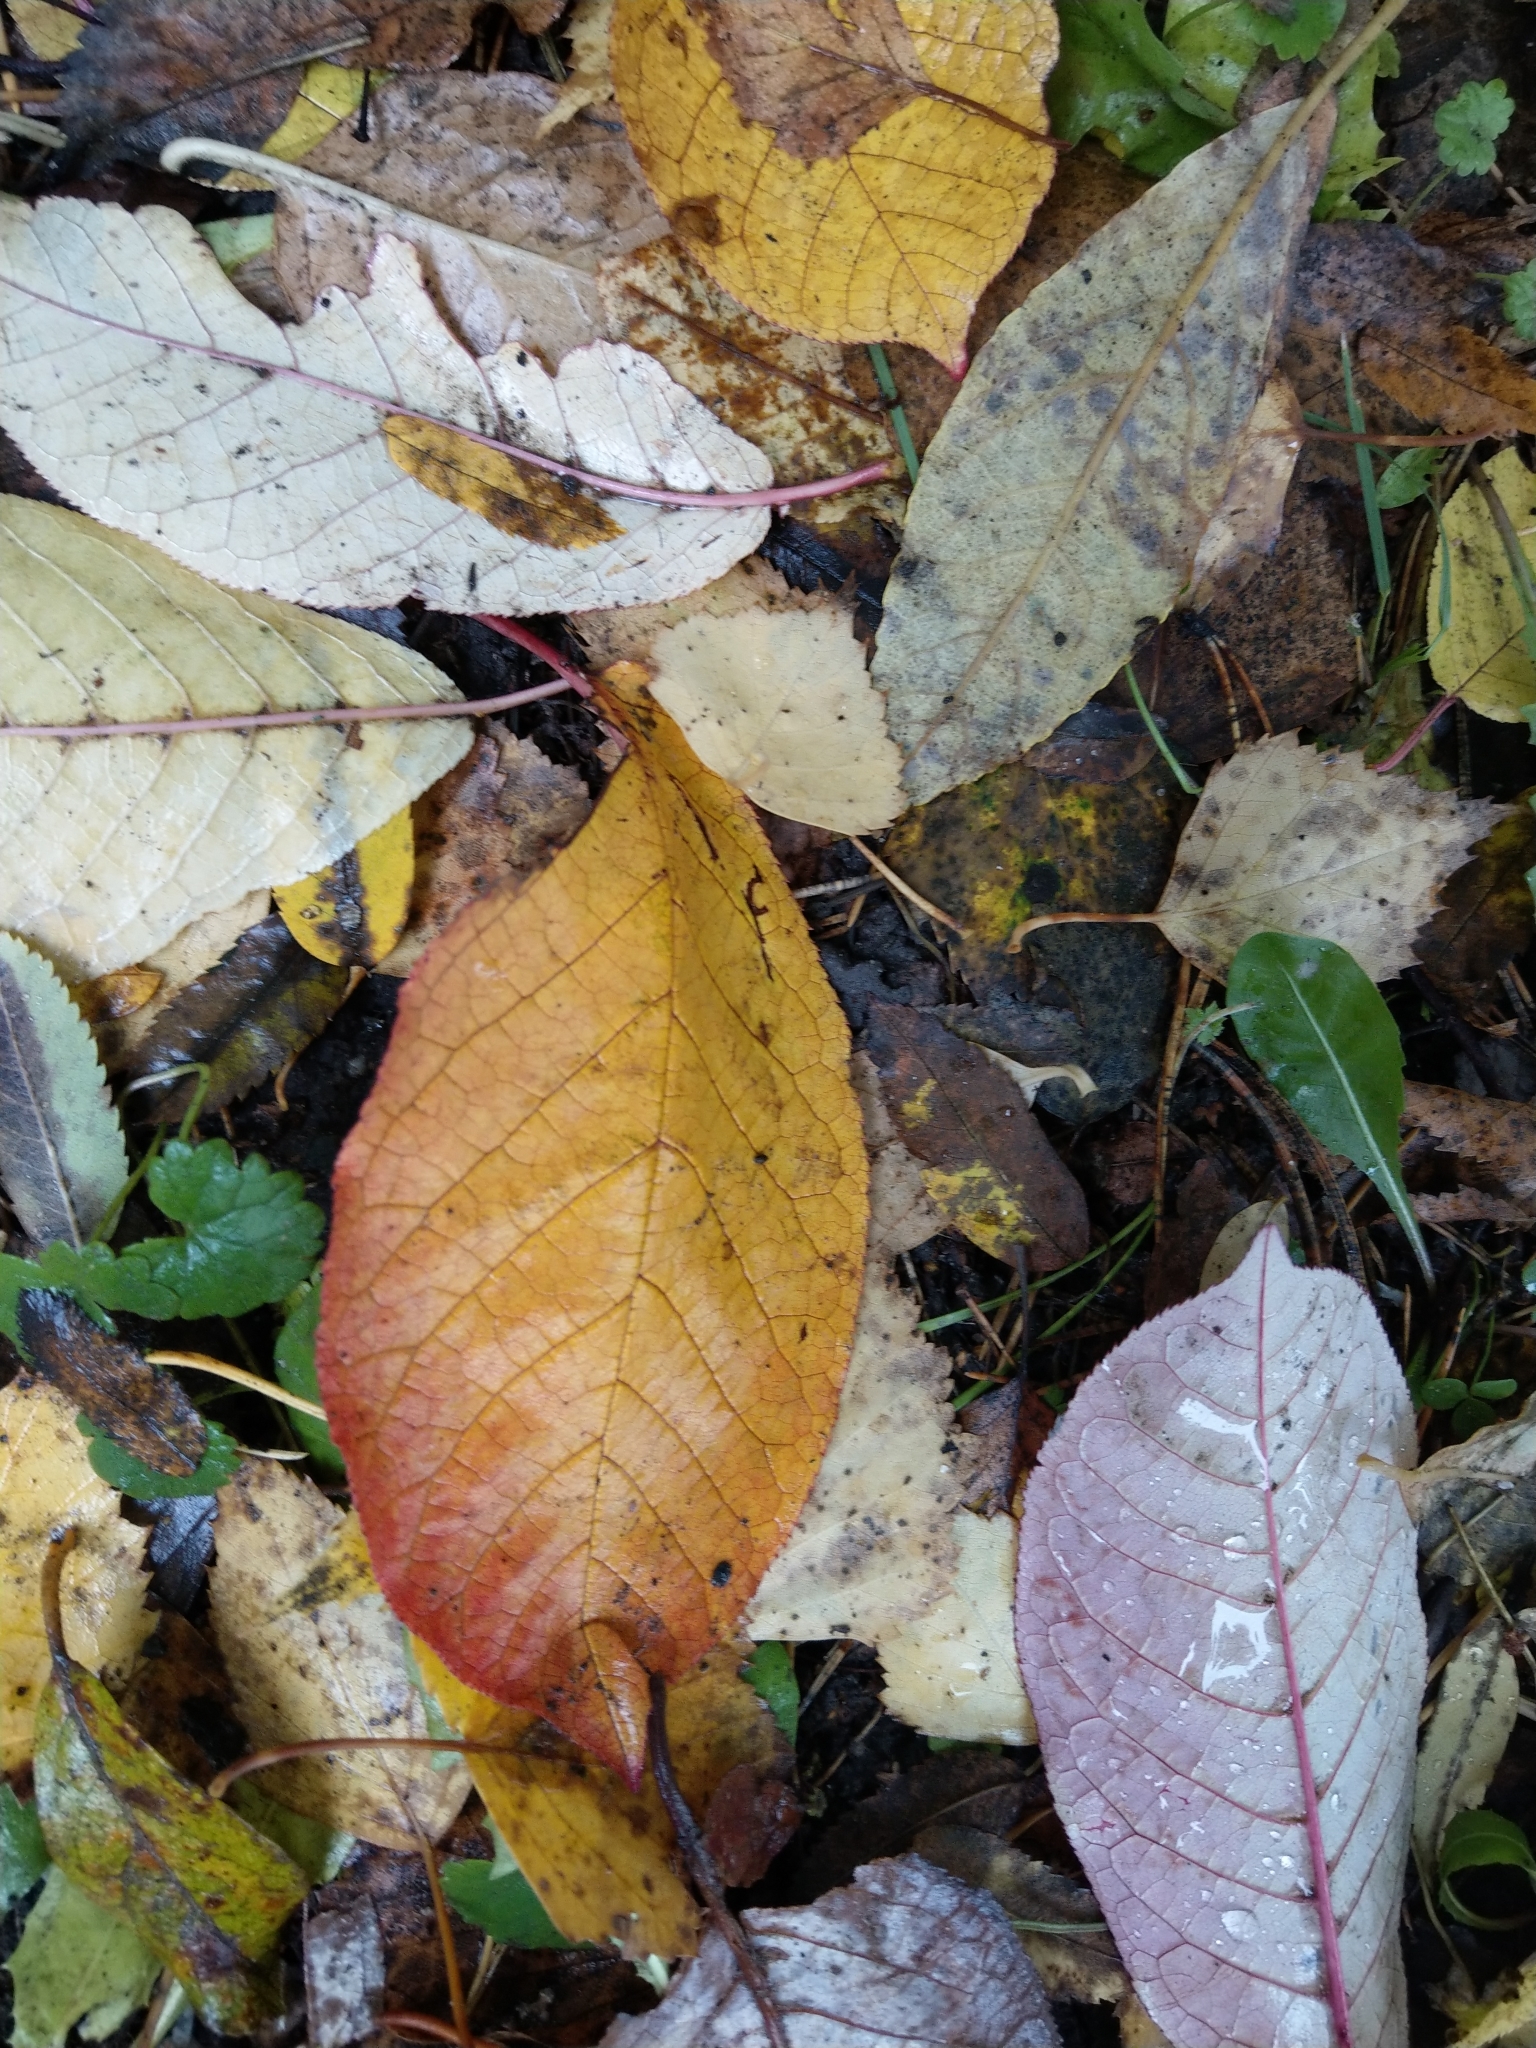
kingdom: Plantae
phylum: Tracheophyta
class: Magnoliopsida
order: Rosales
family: Rosaceae
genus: Prunus
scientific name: Prunus padus
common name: Bird cherry
